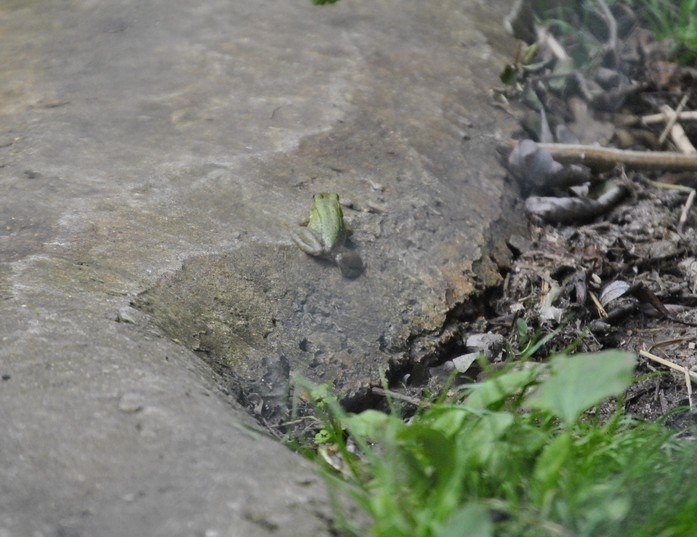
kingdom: Animalia
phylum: Chordata
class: Amphibia
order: Anura
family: Ranidae
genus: Lithobates
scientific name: Lithobates clamitans
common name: Green frog
